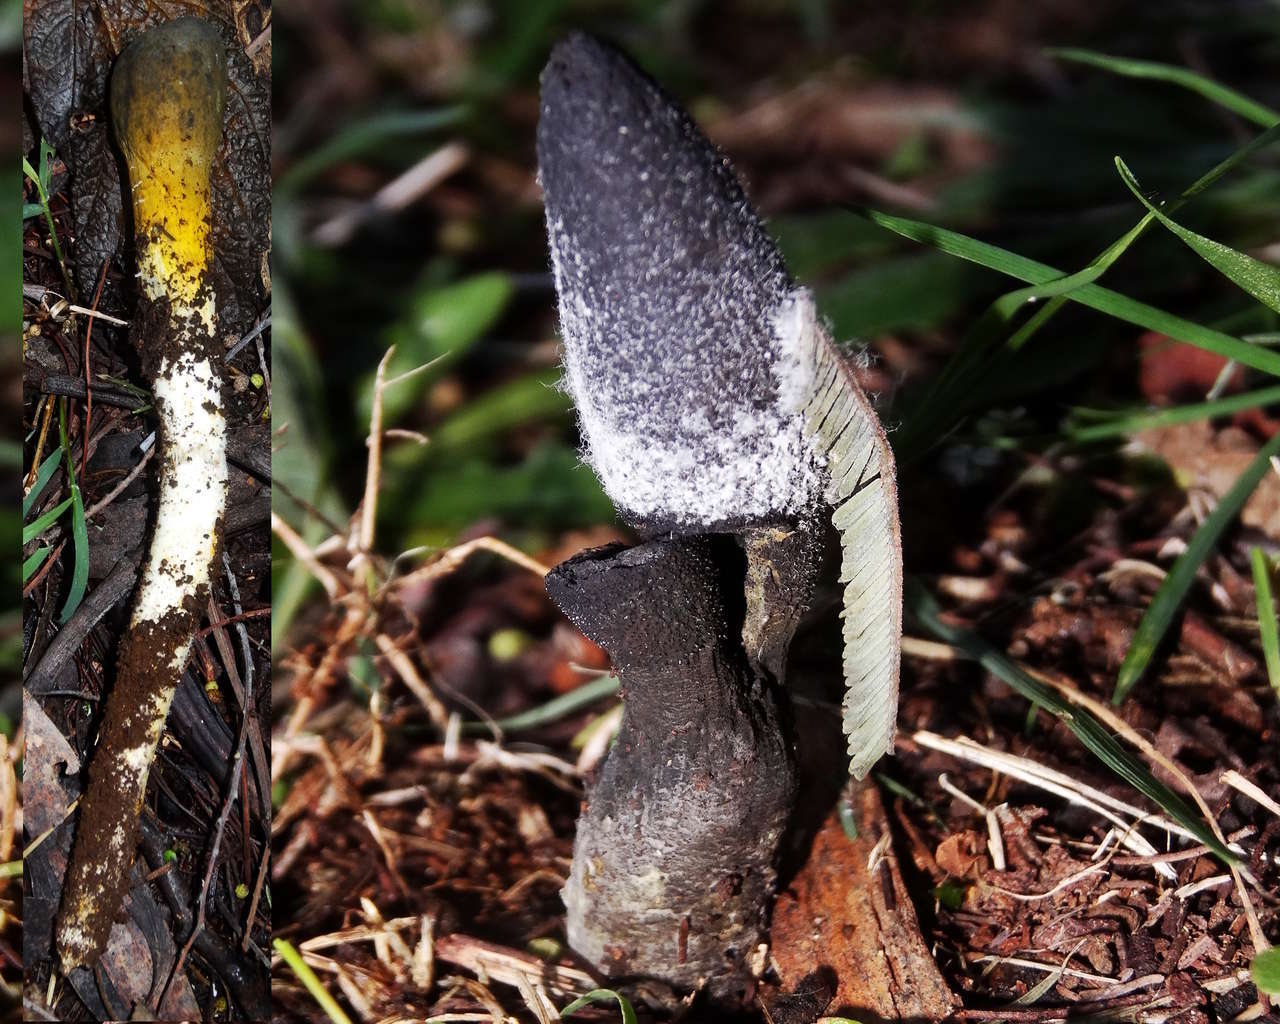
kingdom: Fungi
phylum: Ascomycota
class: Sordariomycetes
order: Hypocreales
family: Clavicipitaceae
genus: Drechmeria
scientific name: Drechmeria gunnii
